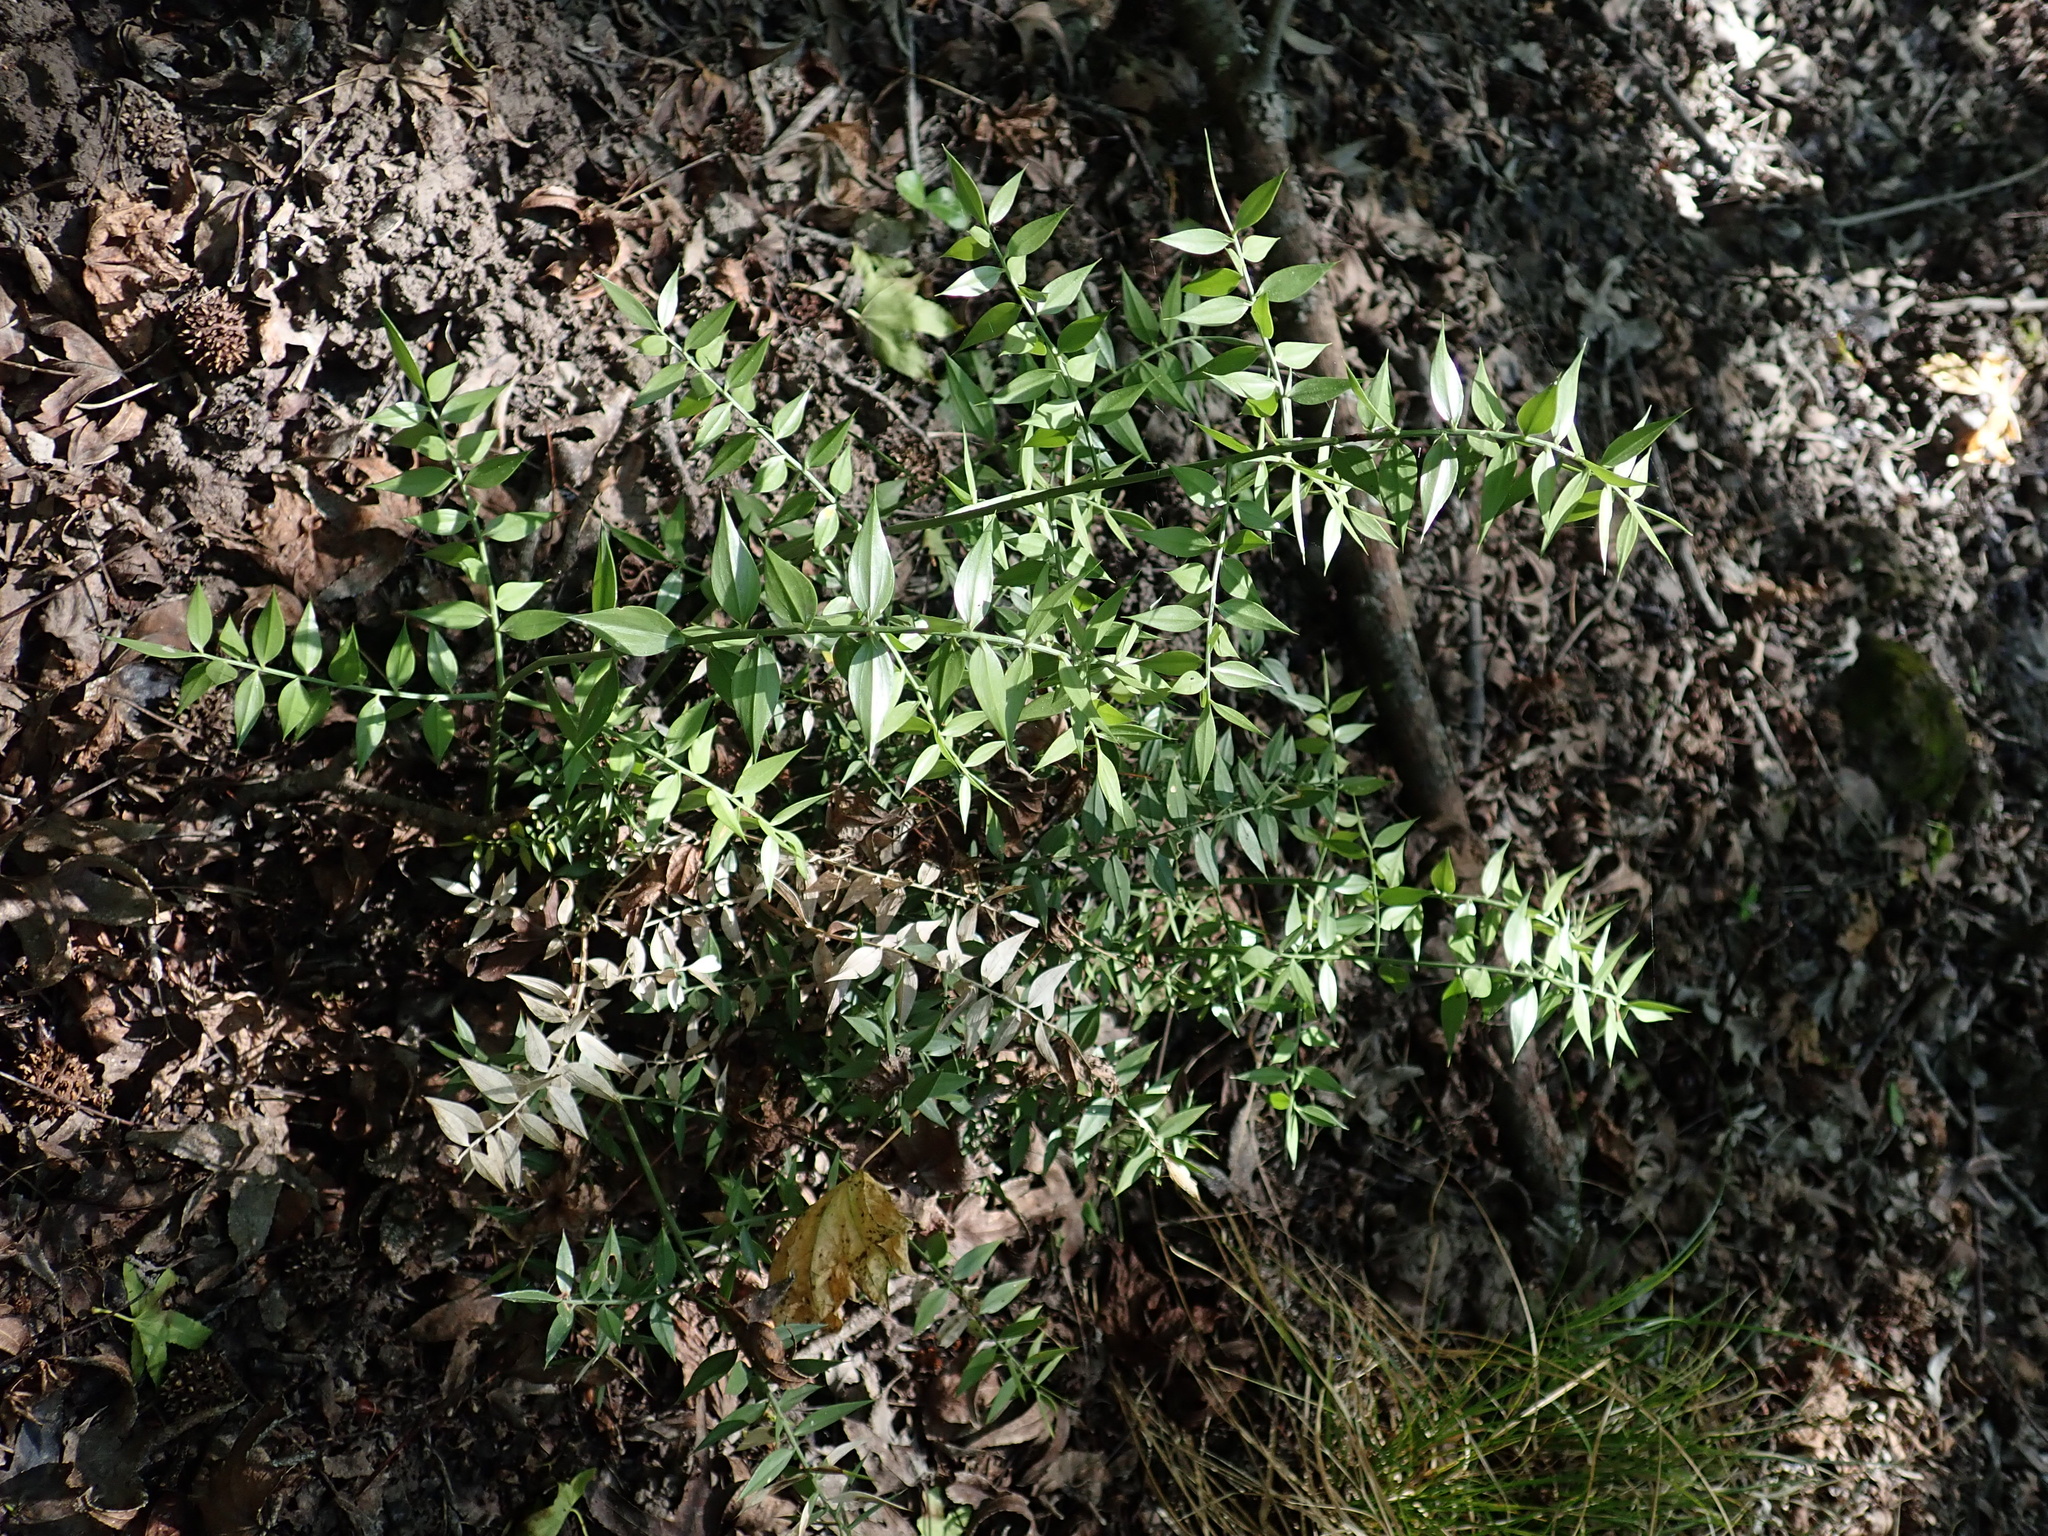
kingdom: Plantae
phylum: Tracheophyta
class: Liliopsida
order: Asparagales
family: Asparagaceae
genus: Ruscus
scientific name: Ruscus aculeatus
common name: Butcher's-broom
